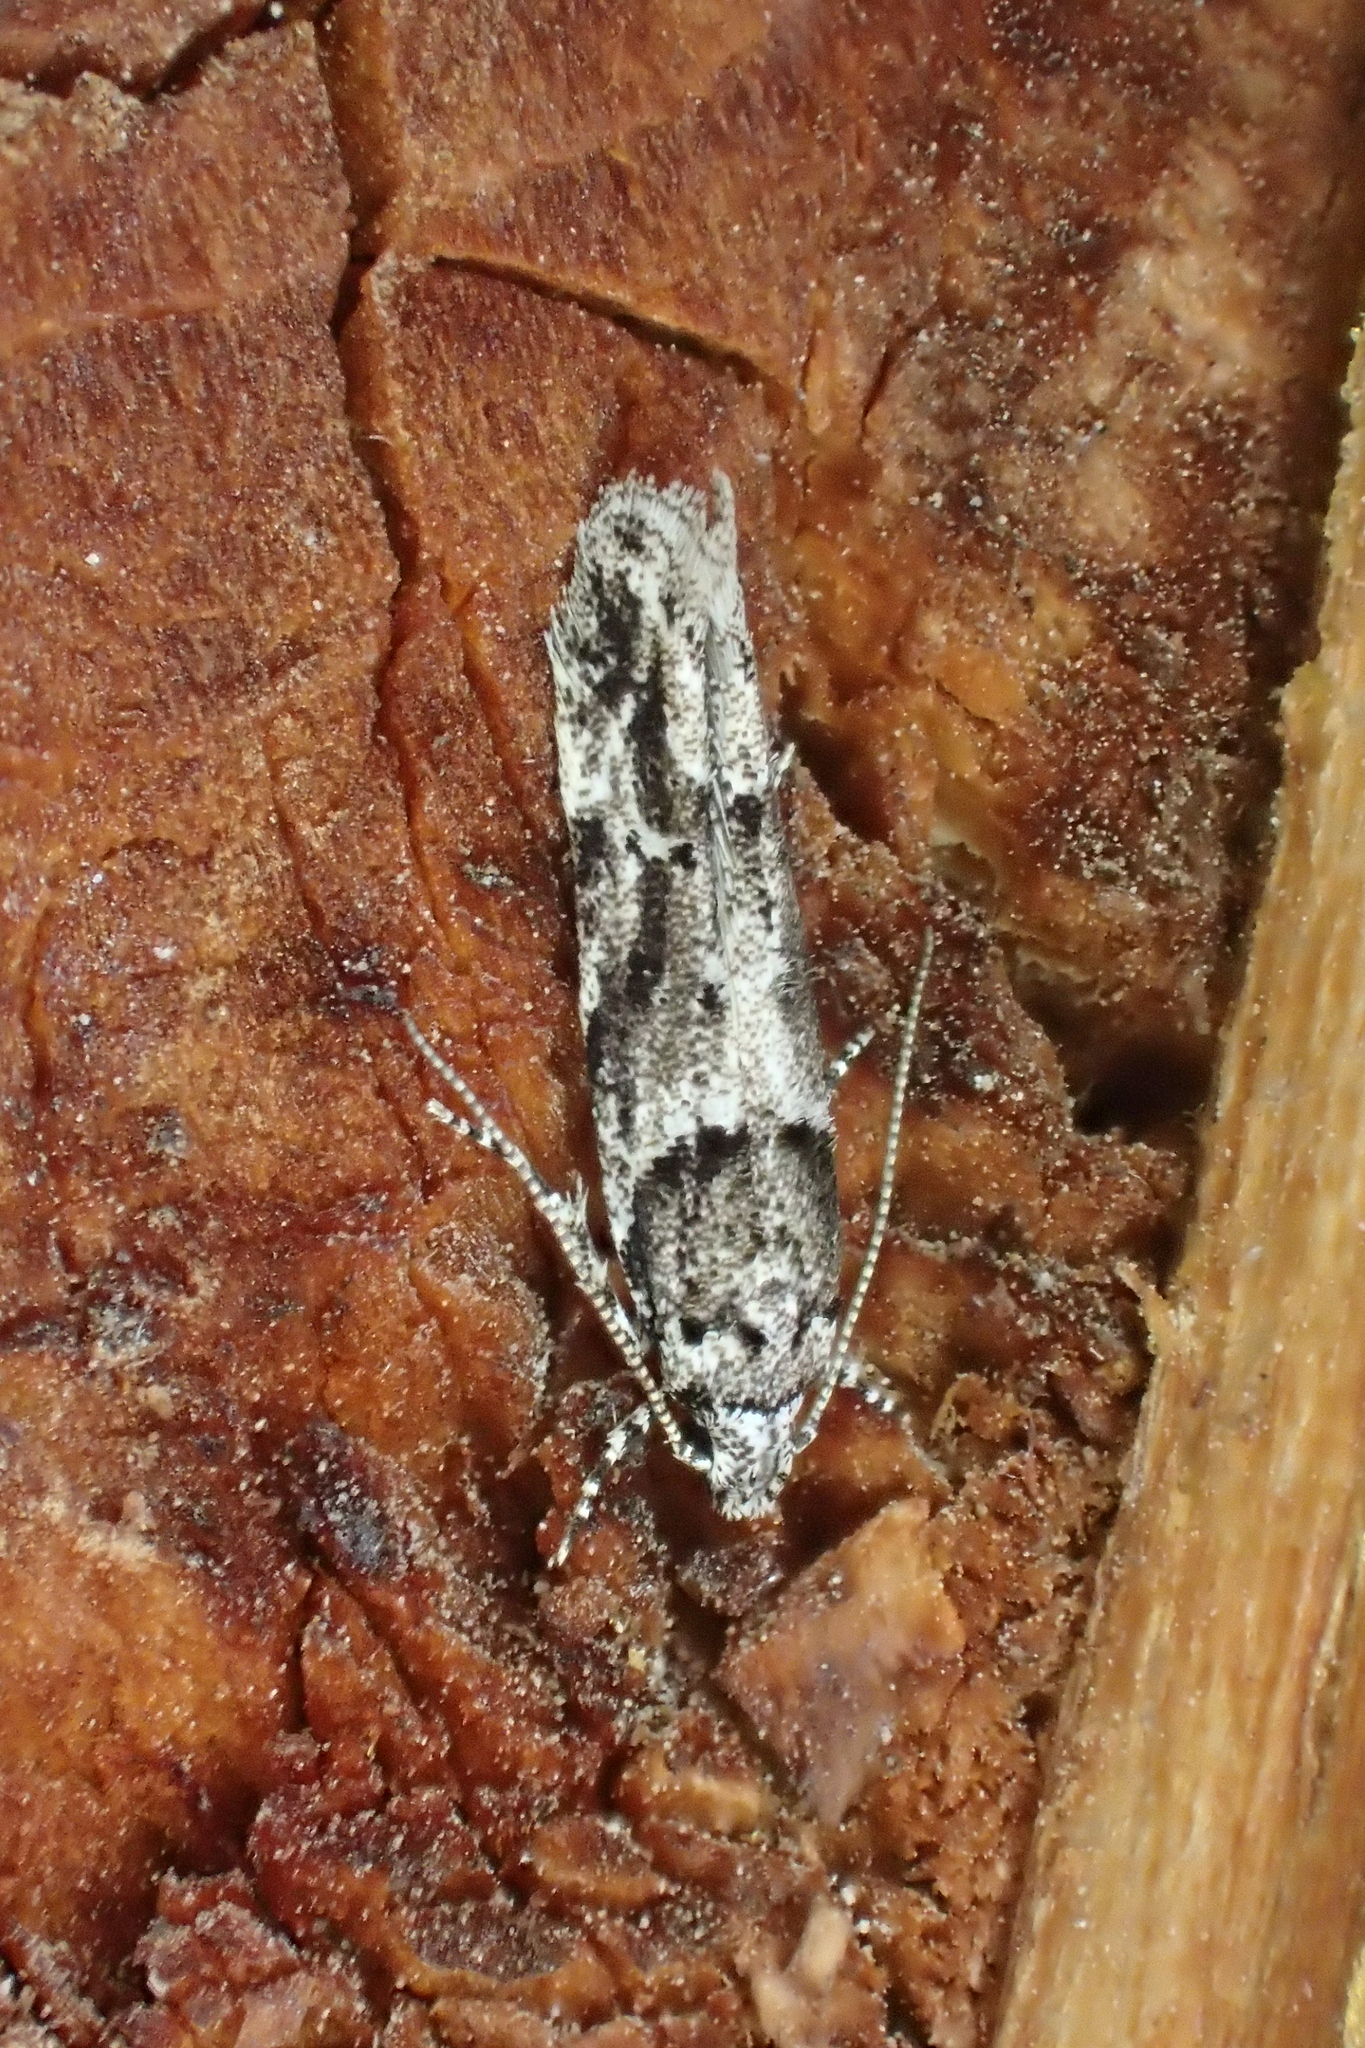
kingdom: Animalia
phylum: Arthropoda
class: Insecta
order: Lepidoptera
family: Gelechiidae
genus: Recurvaria
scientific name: Recurvaria nanella
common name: Gelechiid moth
